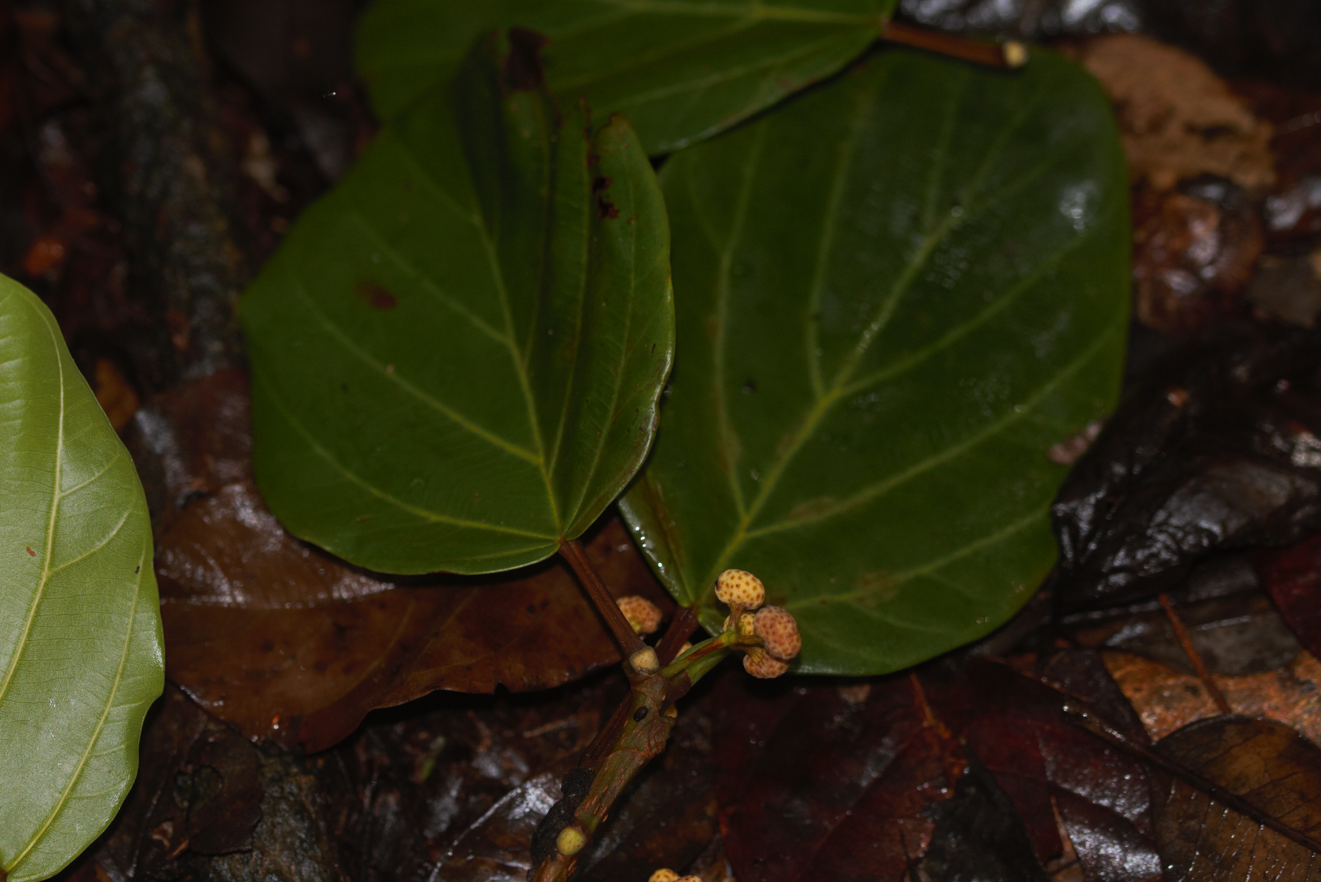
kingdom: Plantae
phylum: Tracheophyta
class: Magnoliopsida
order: Rosales
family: Urticaceae
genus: Coussapoa
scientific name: Coussapoa latifolia
